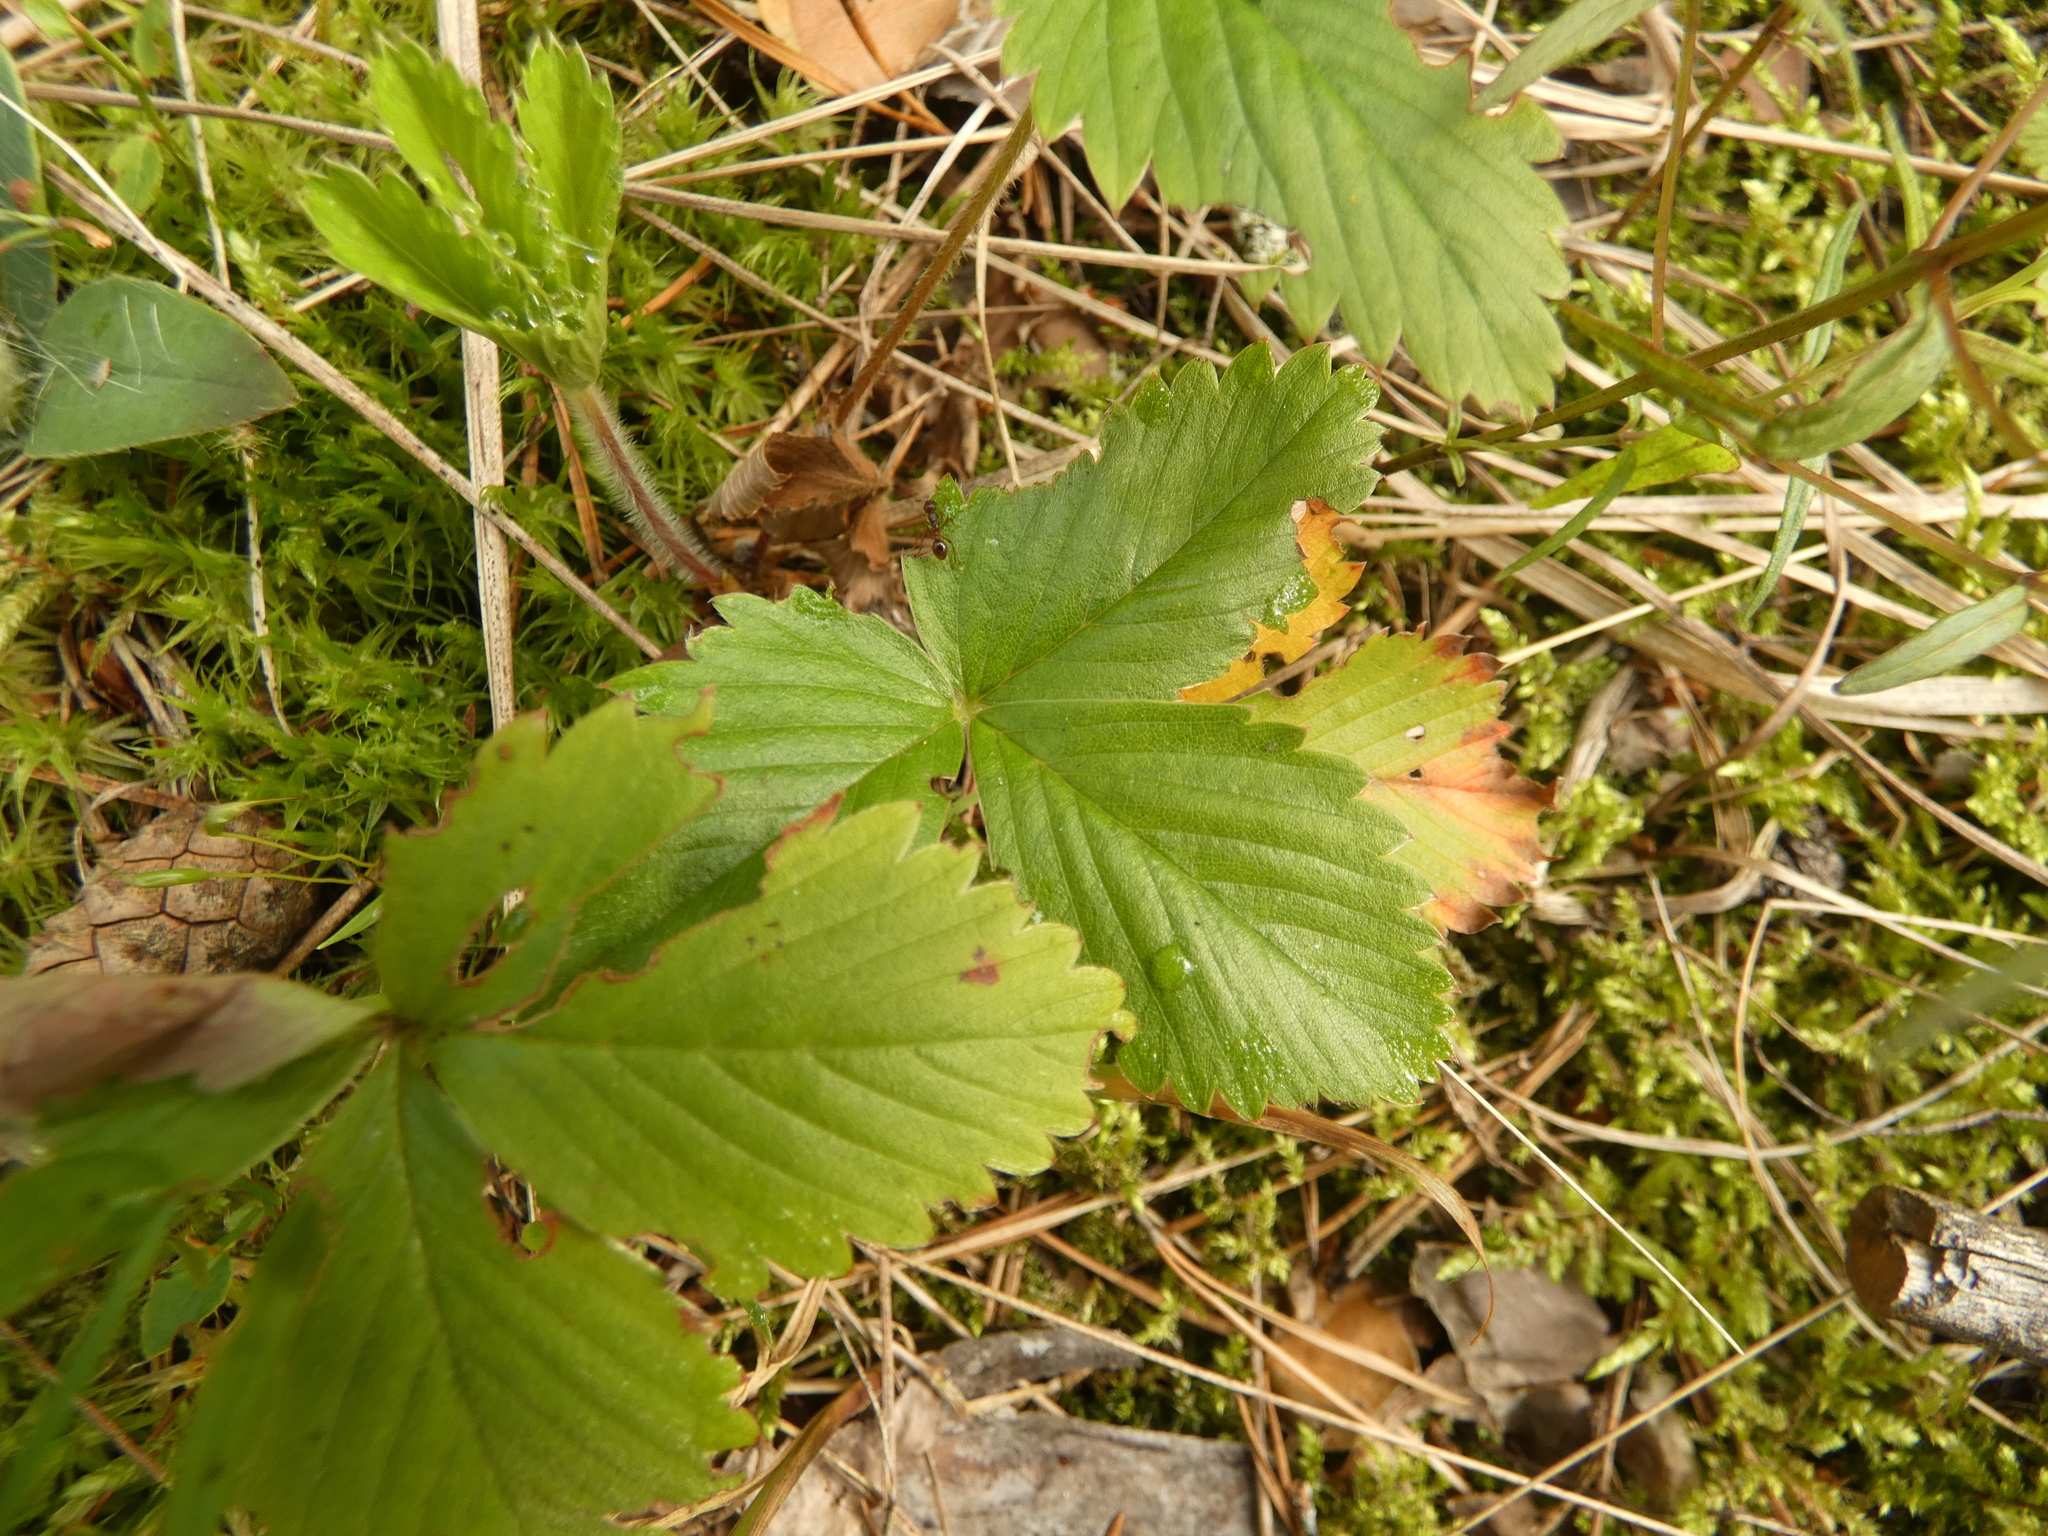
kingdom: Plantae
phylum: Tracheophyta
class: Magnoliopsida
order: Rosales
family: Rosaceae
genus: Fragaria
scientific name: Fragaria vesca
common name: Wild strawberry
